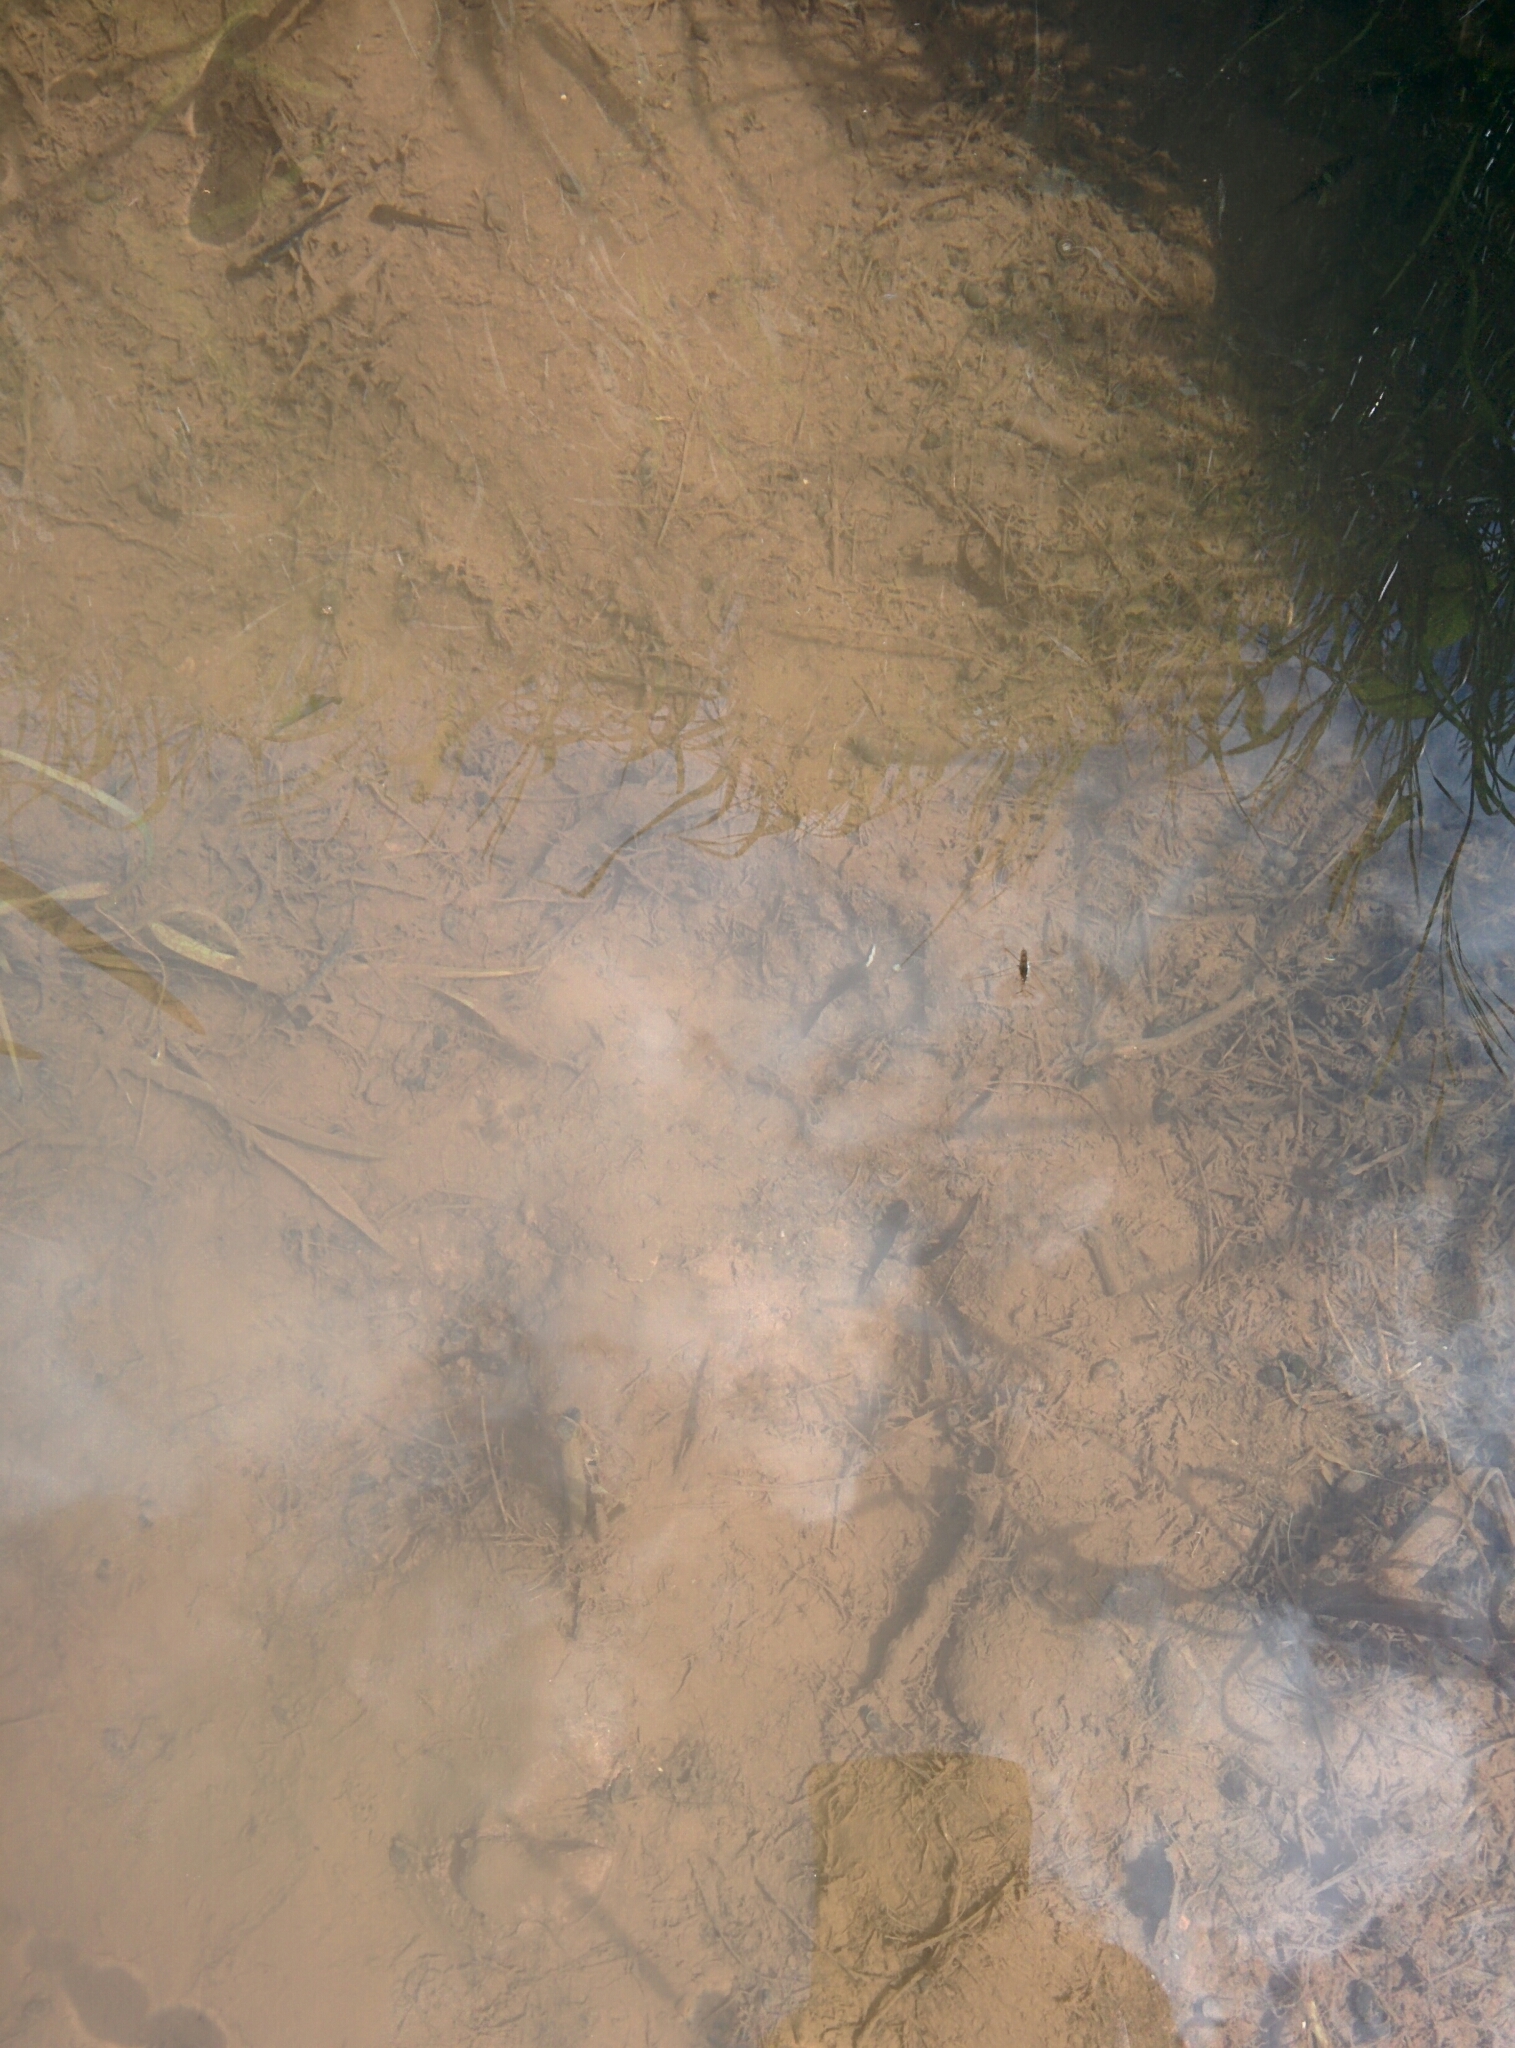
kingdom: Animalia
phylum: Chordata
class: Amphibia
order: Caudata
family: Salamandridae
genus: Salamandra
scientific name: Salamandra salamandra
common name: Fire salamander
